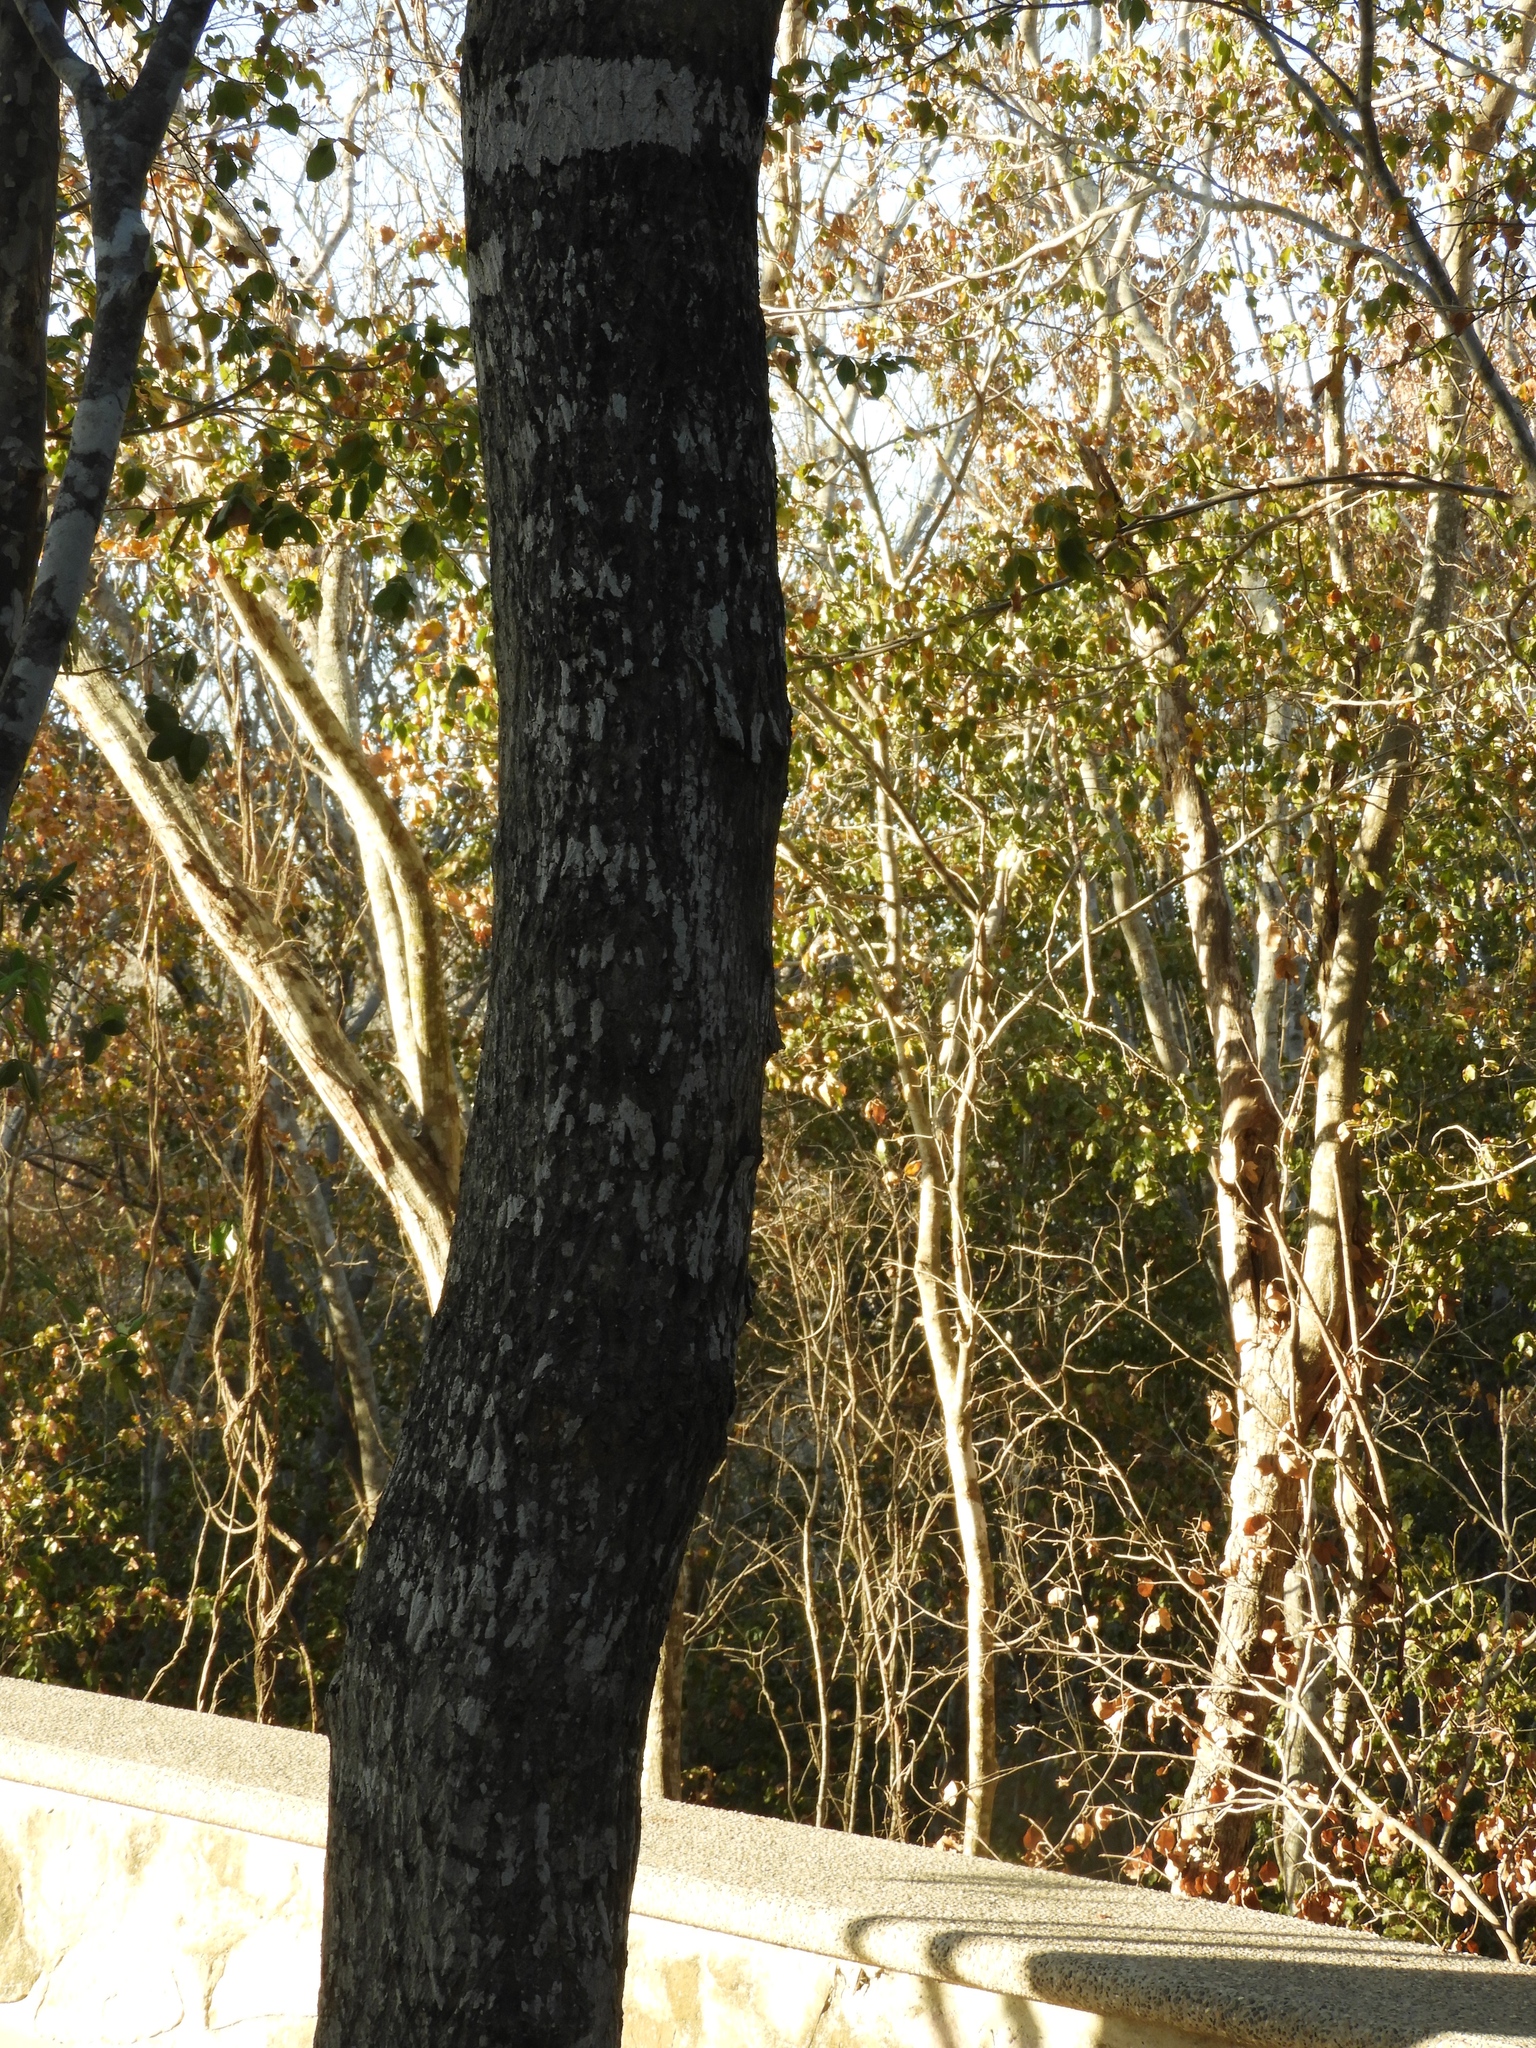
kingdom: Plantae
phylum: Tracheophyta
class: Magnoliopsida
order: Lamiales
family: Bignoniaceae
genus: Handroanthus
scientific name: Handroanthus impetiginosum
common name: Pink trumpet tree
